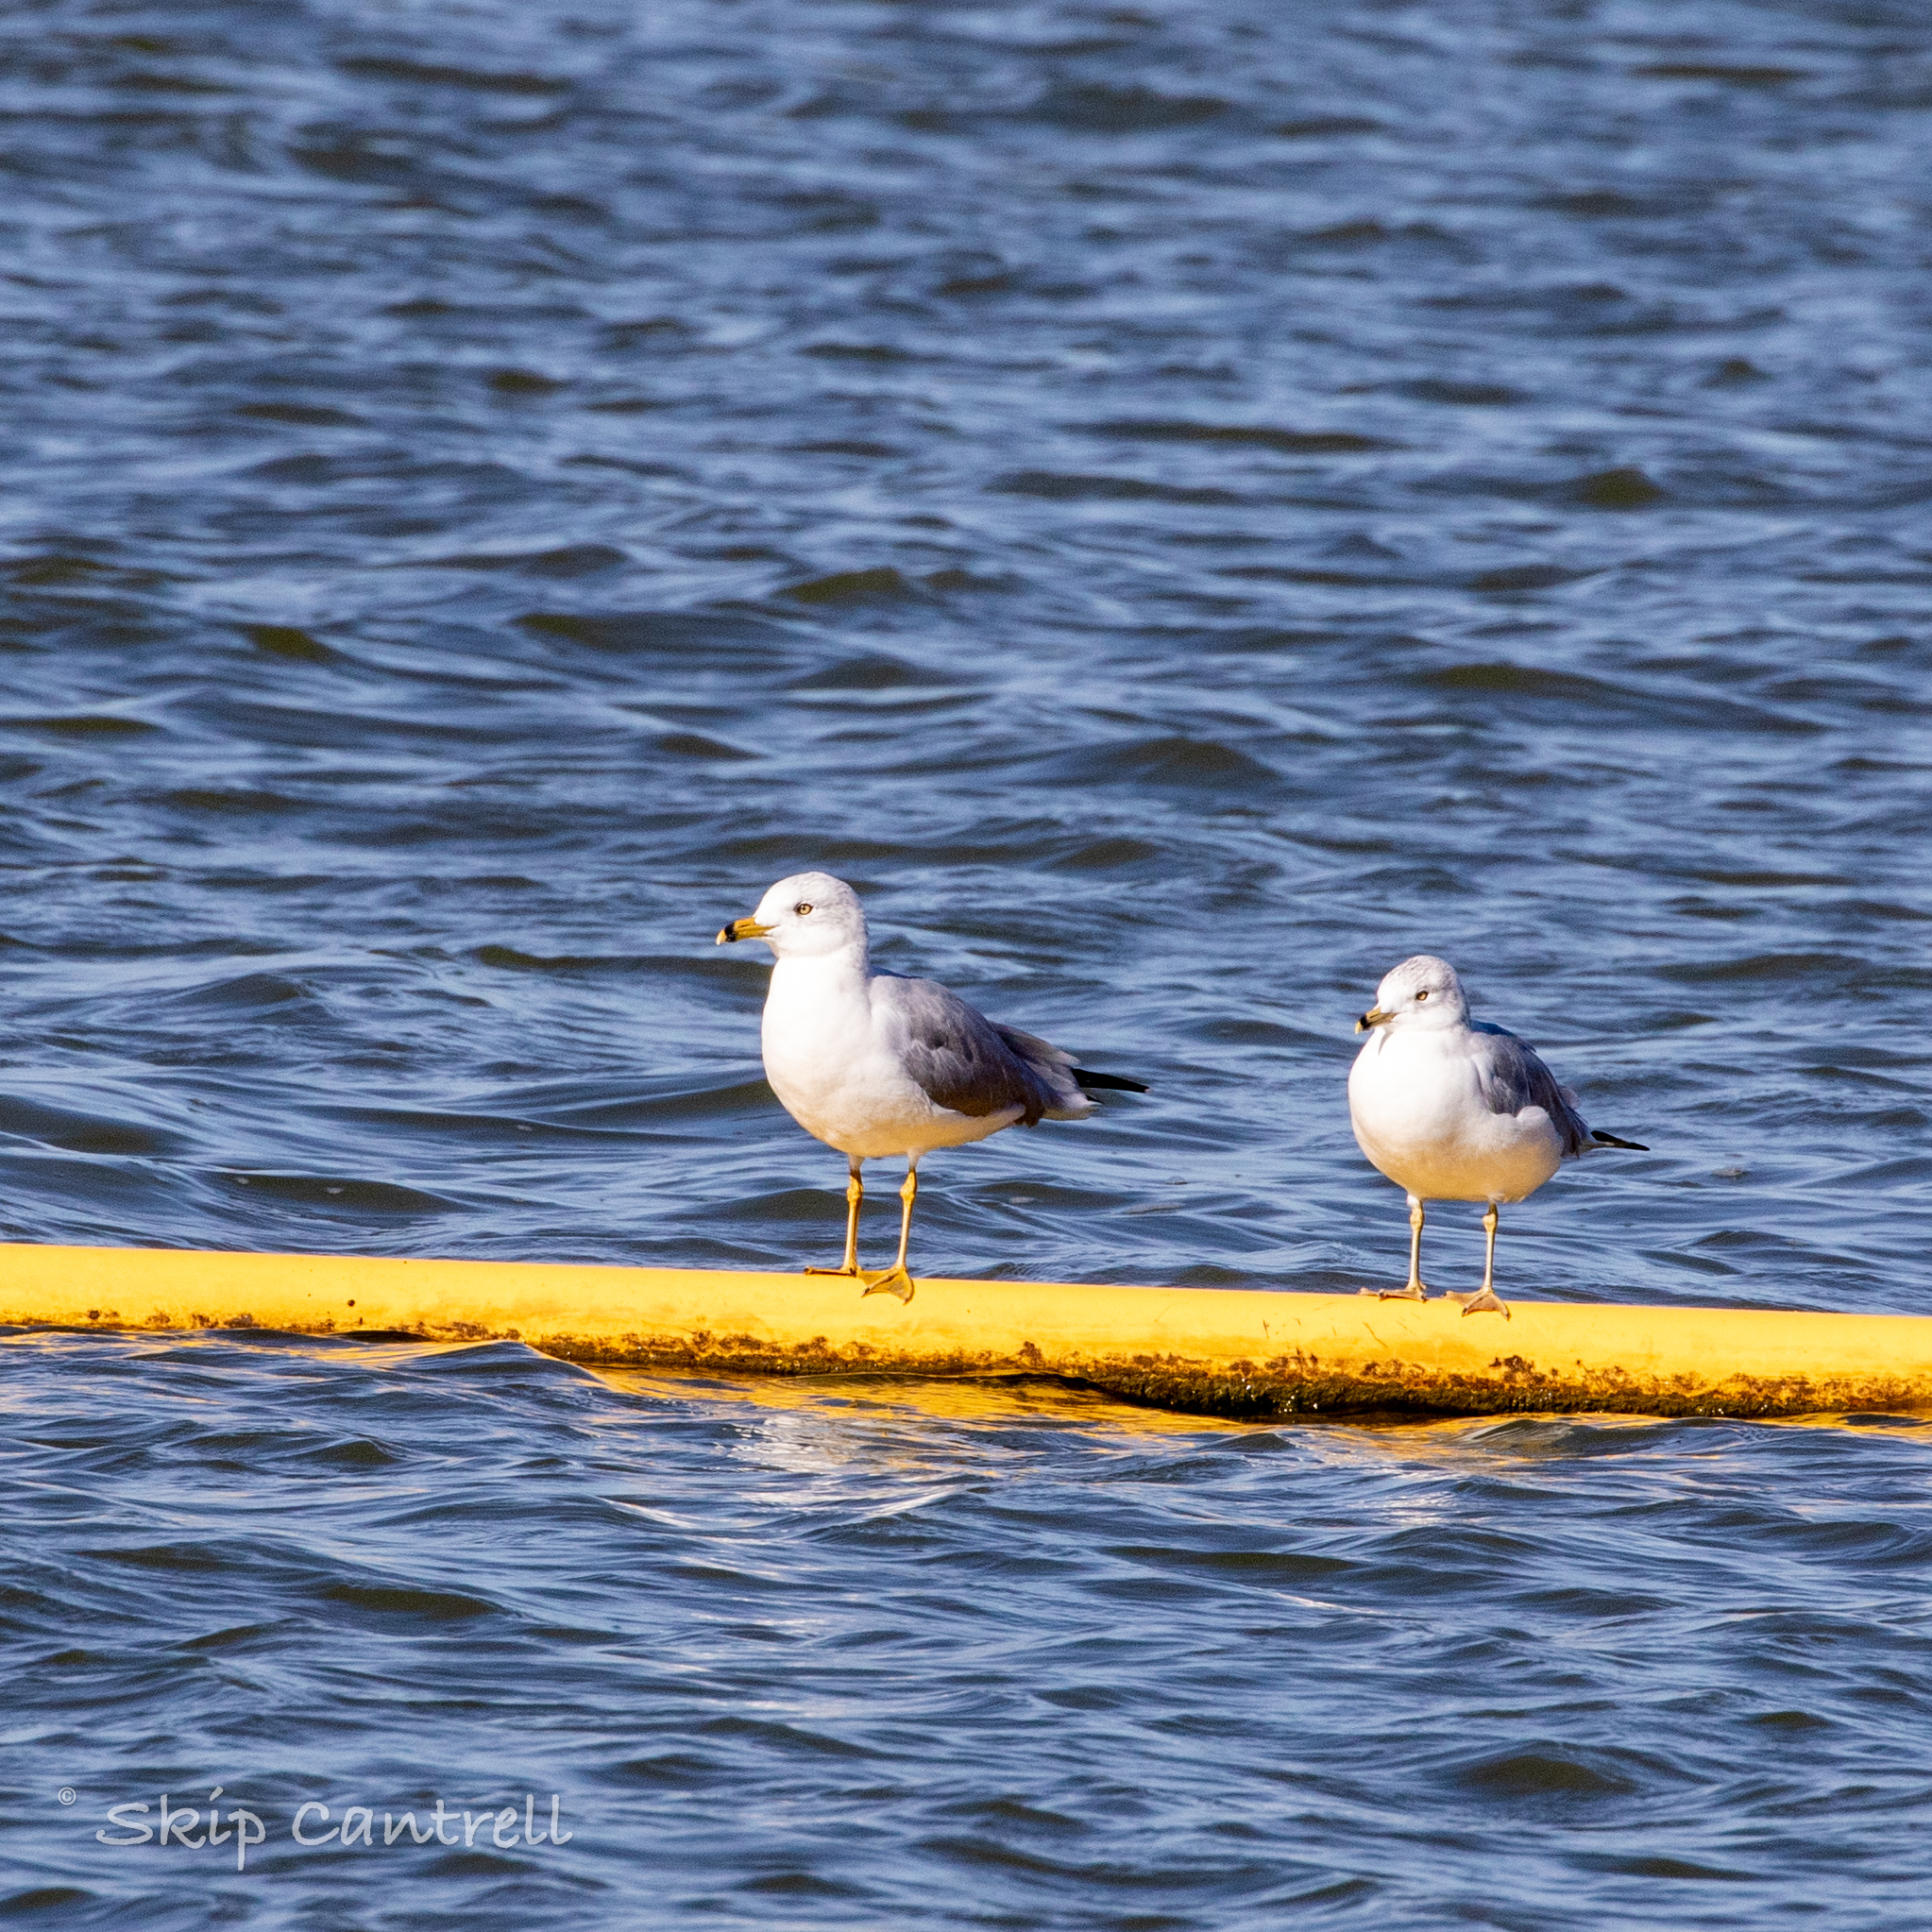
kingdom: Animalia
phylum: Chordata
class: Aves
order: Charadriiformes
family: Laridae
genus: Larus
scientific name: Larus delawarensis
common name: Ring-billed gull
